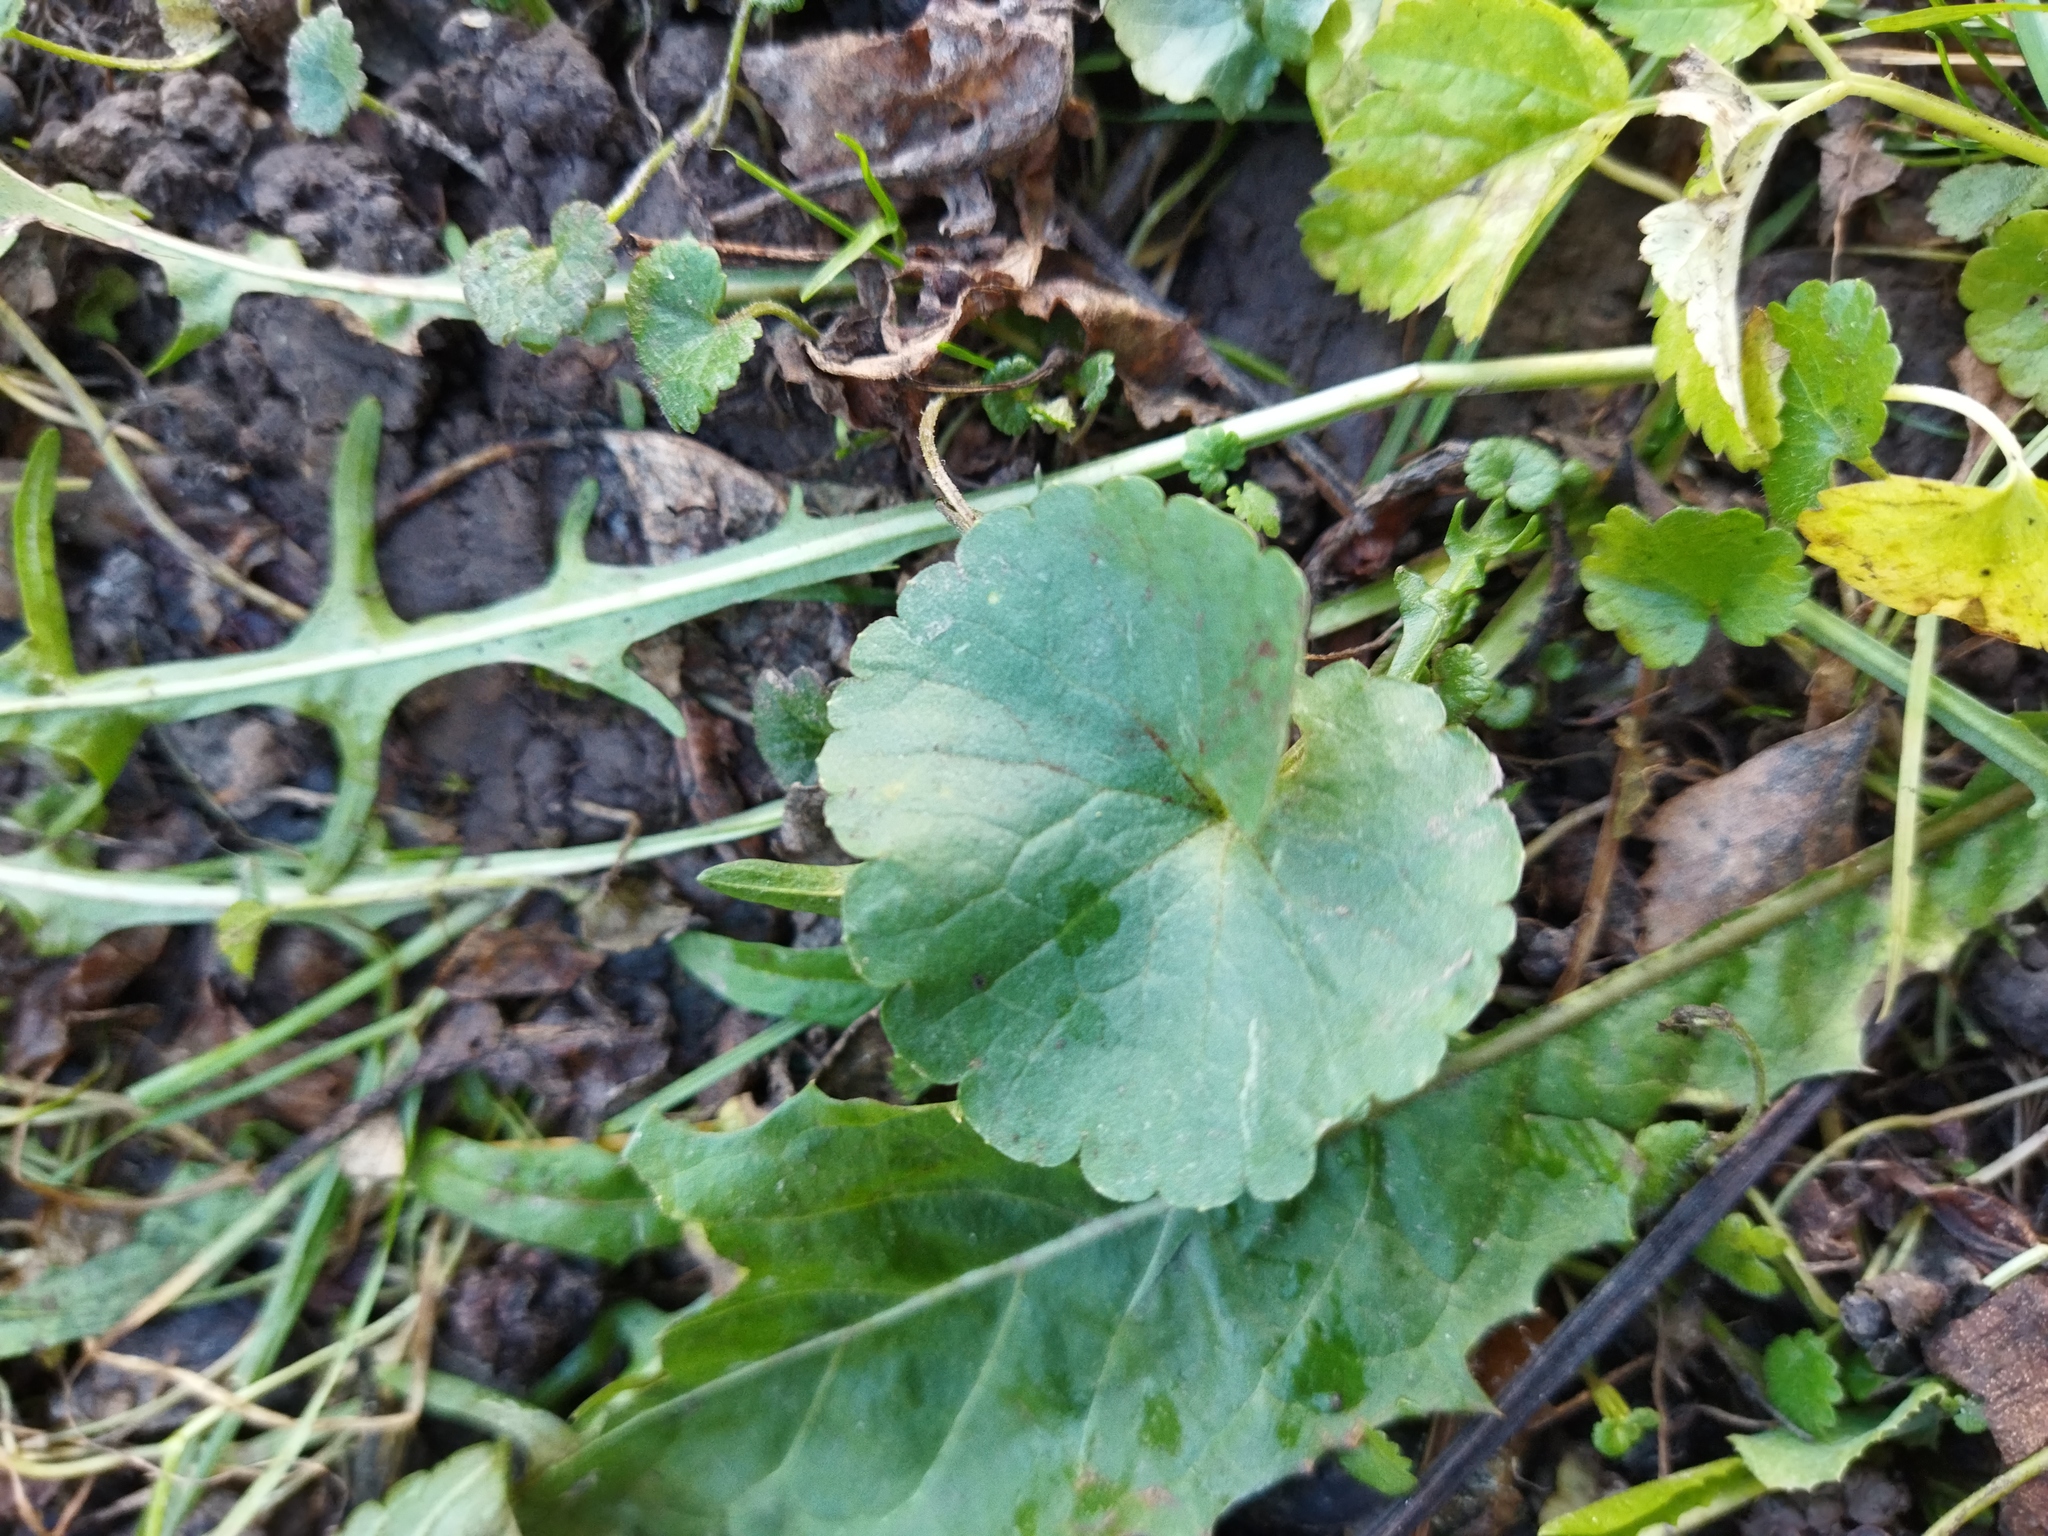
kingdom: Plantae
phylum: Tracheophyta
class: Magnoliopsida
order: Lamiales
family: Lamiaceae
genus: Glechoma
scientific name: Glechoma hederacea
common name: Ground ivy
